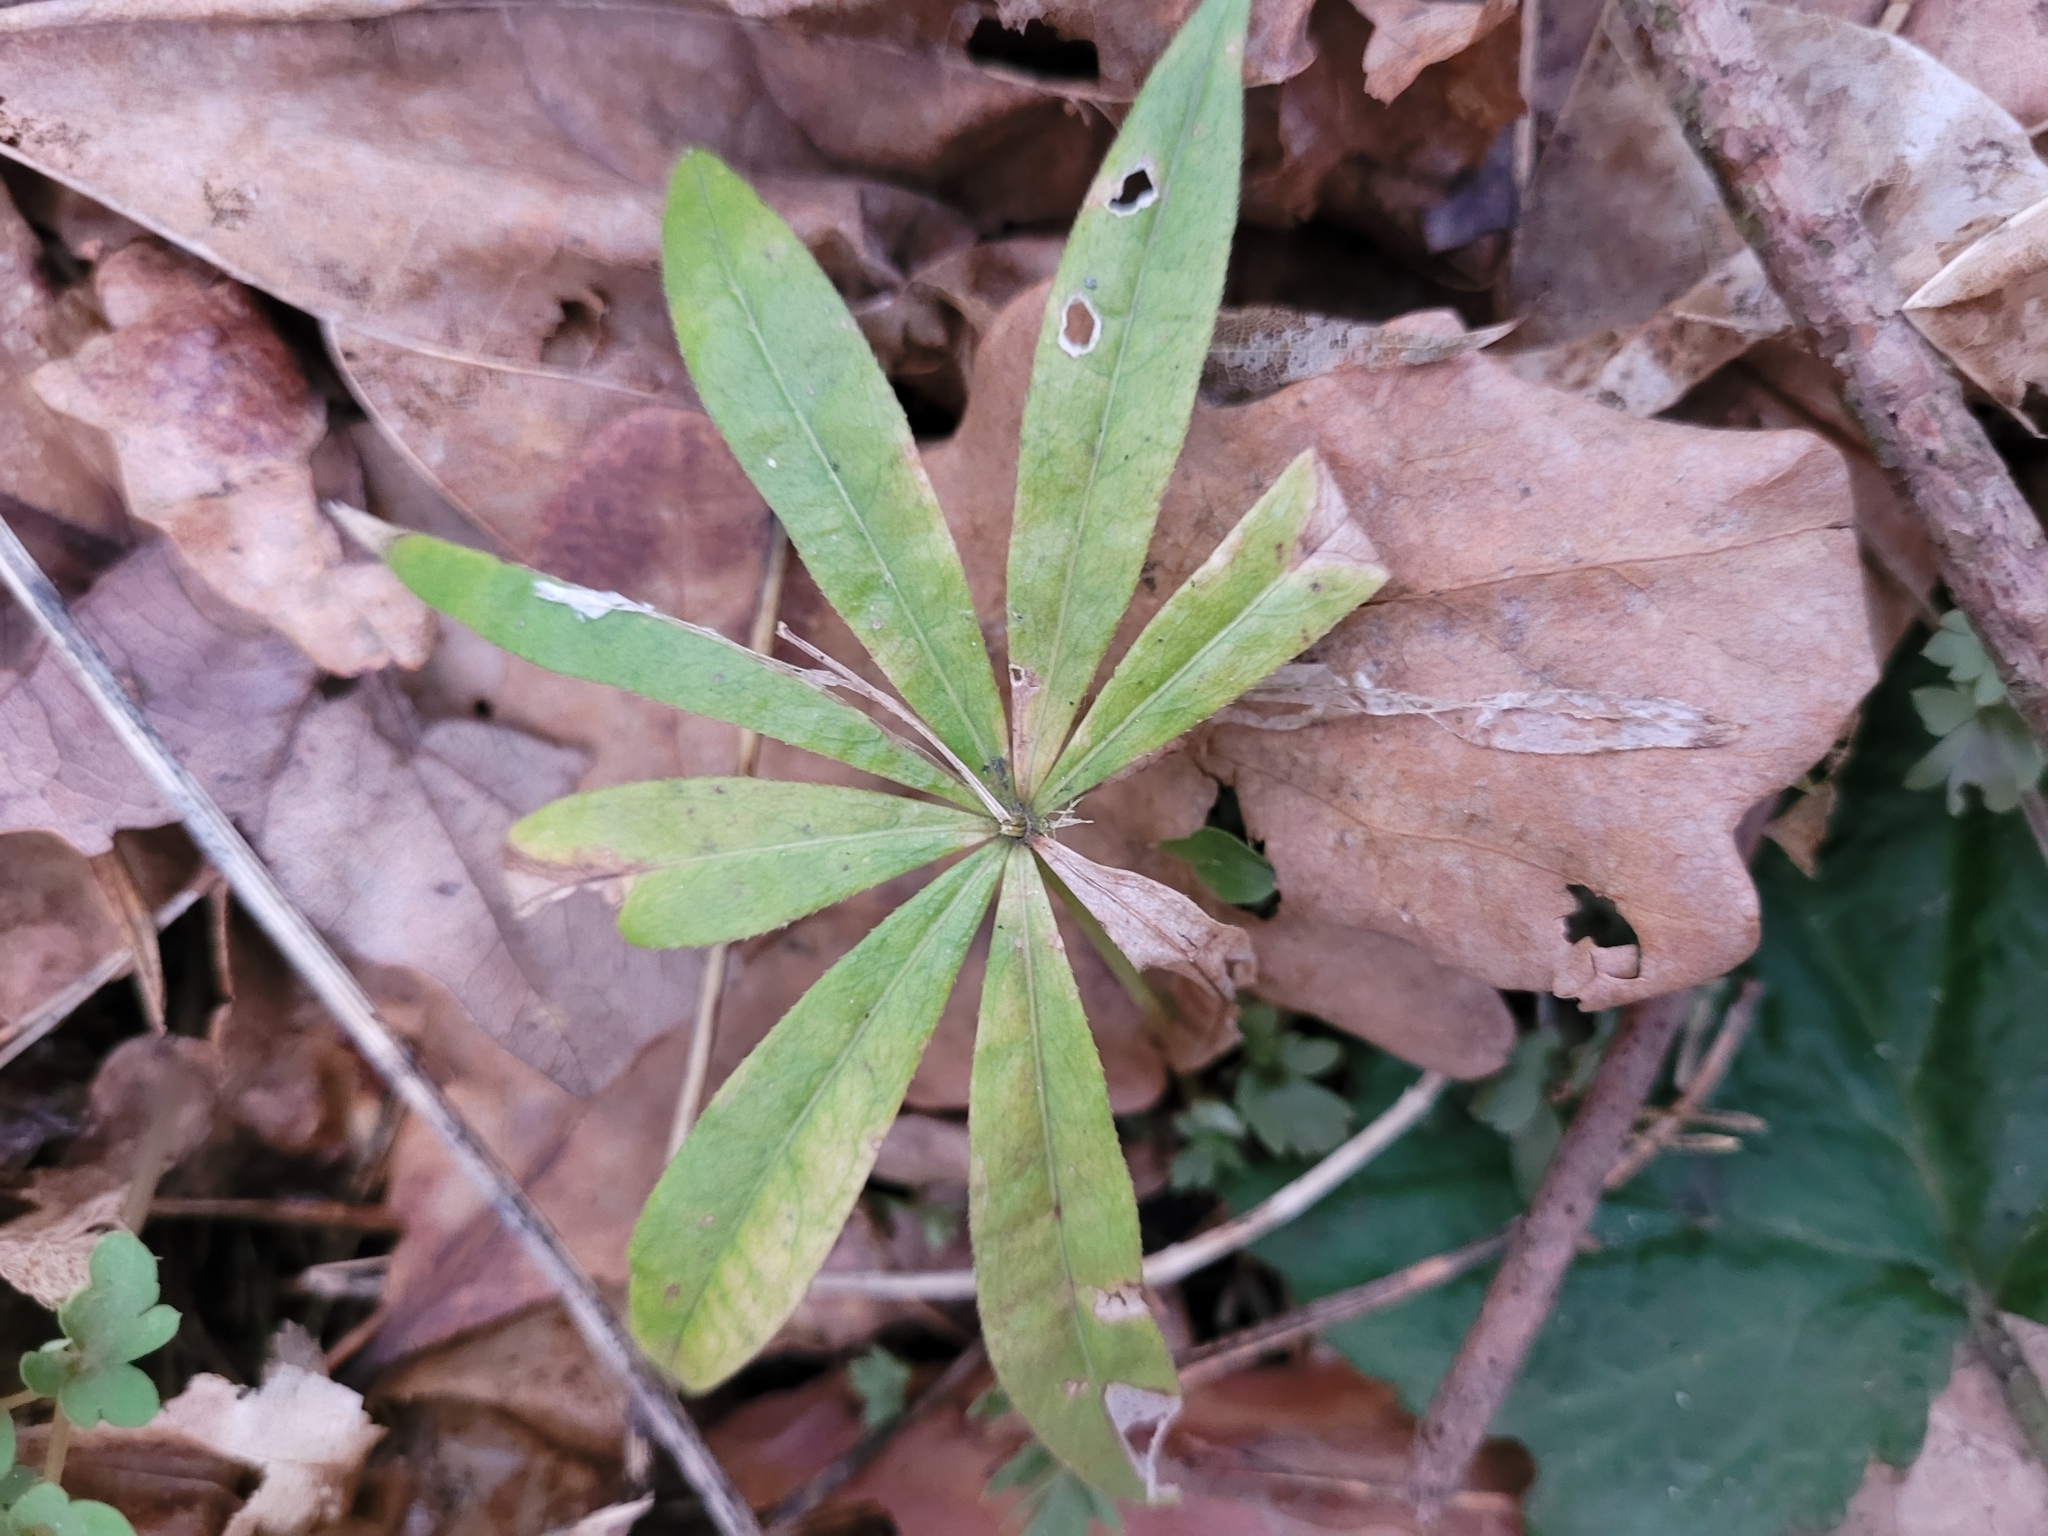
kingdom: Plantae
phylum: Tracheophyta
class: Magnoliopsida
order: Gentianales
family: Rubiaceae
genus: Galium
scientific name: Galium odoratum
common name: Sweet woodruff
